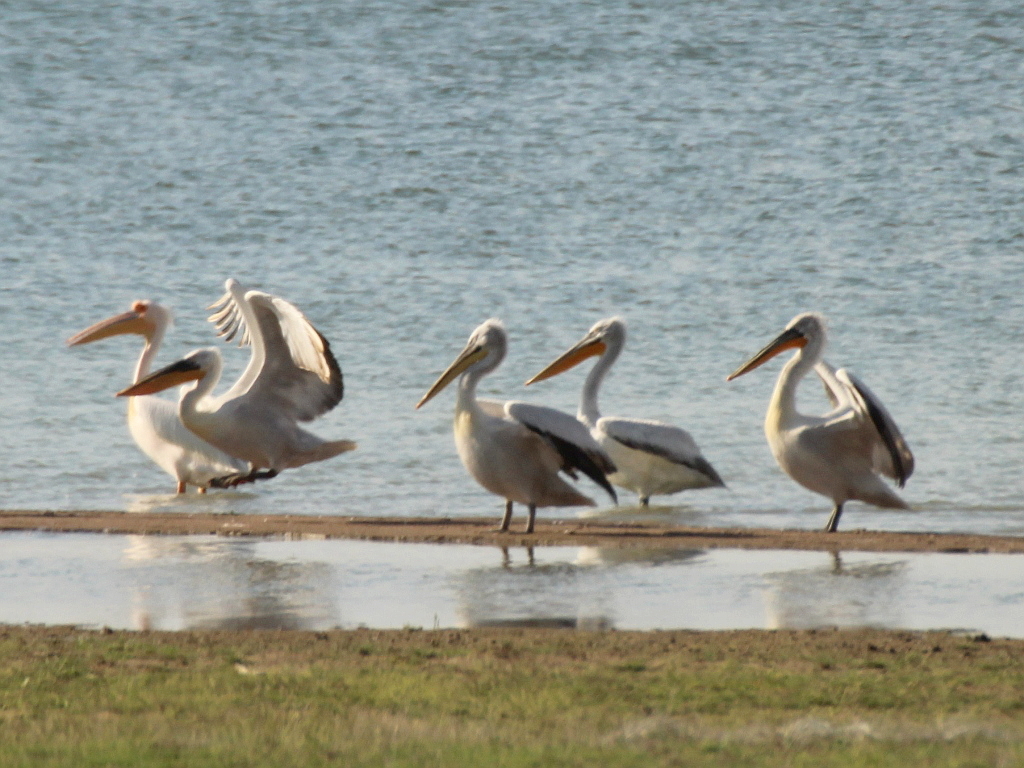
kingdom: Animalia
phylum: Chordata
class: Aves
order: Pelecaniformes
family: Pelecanidae
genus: Pelecanus
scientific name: Pelecanus crispus
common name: Dalmatian pelican
